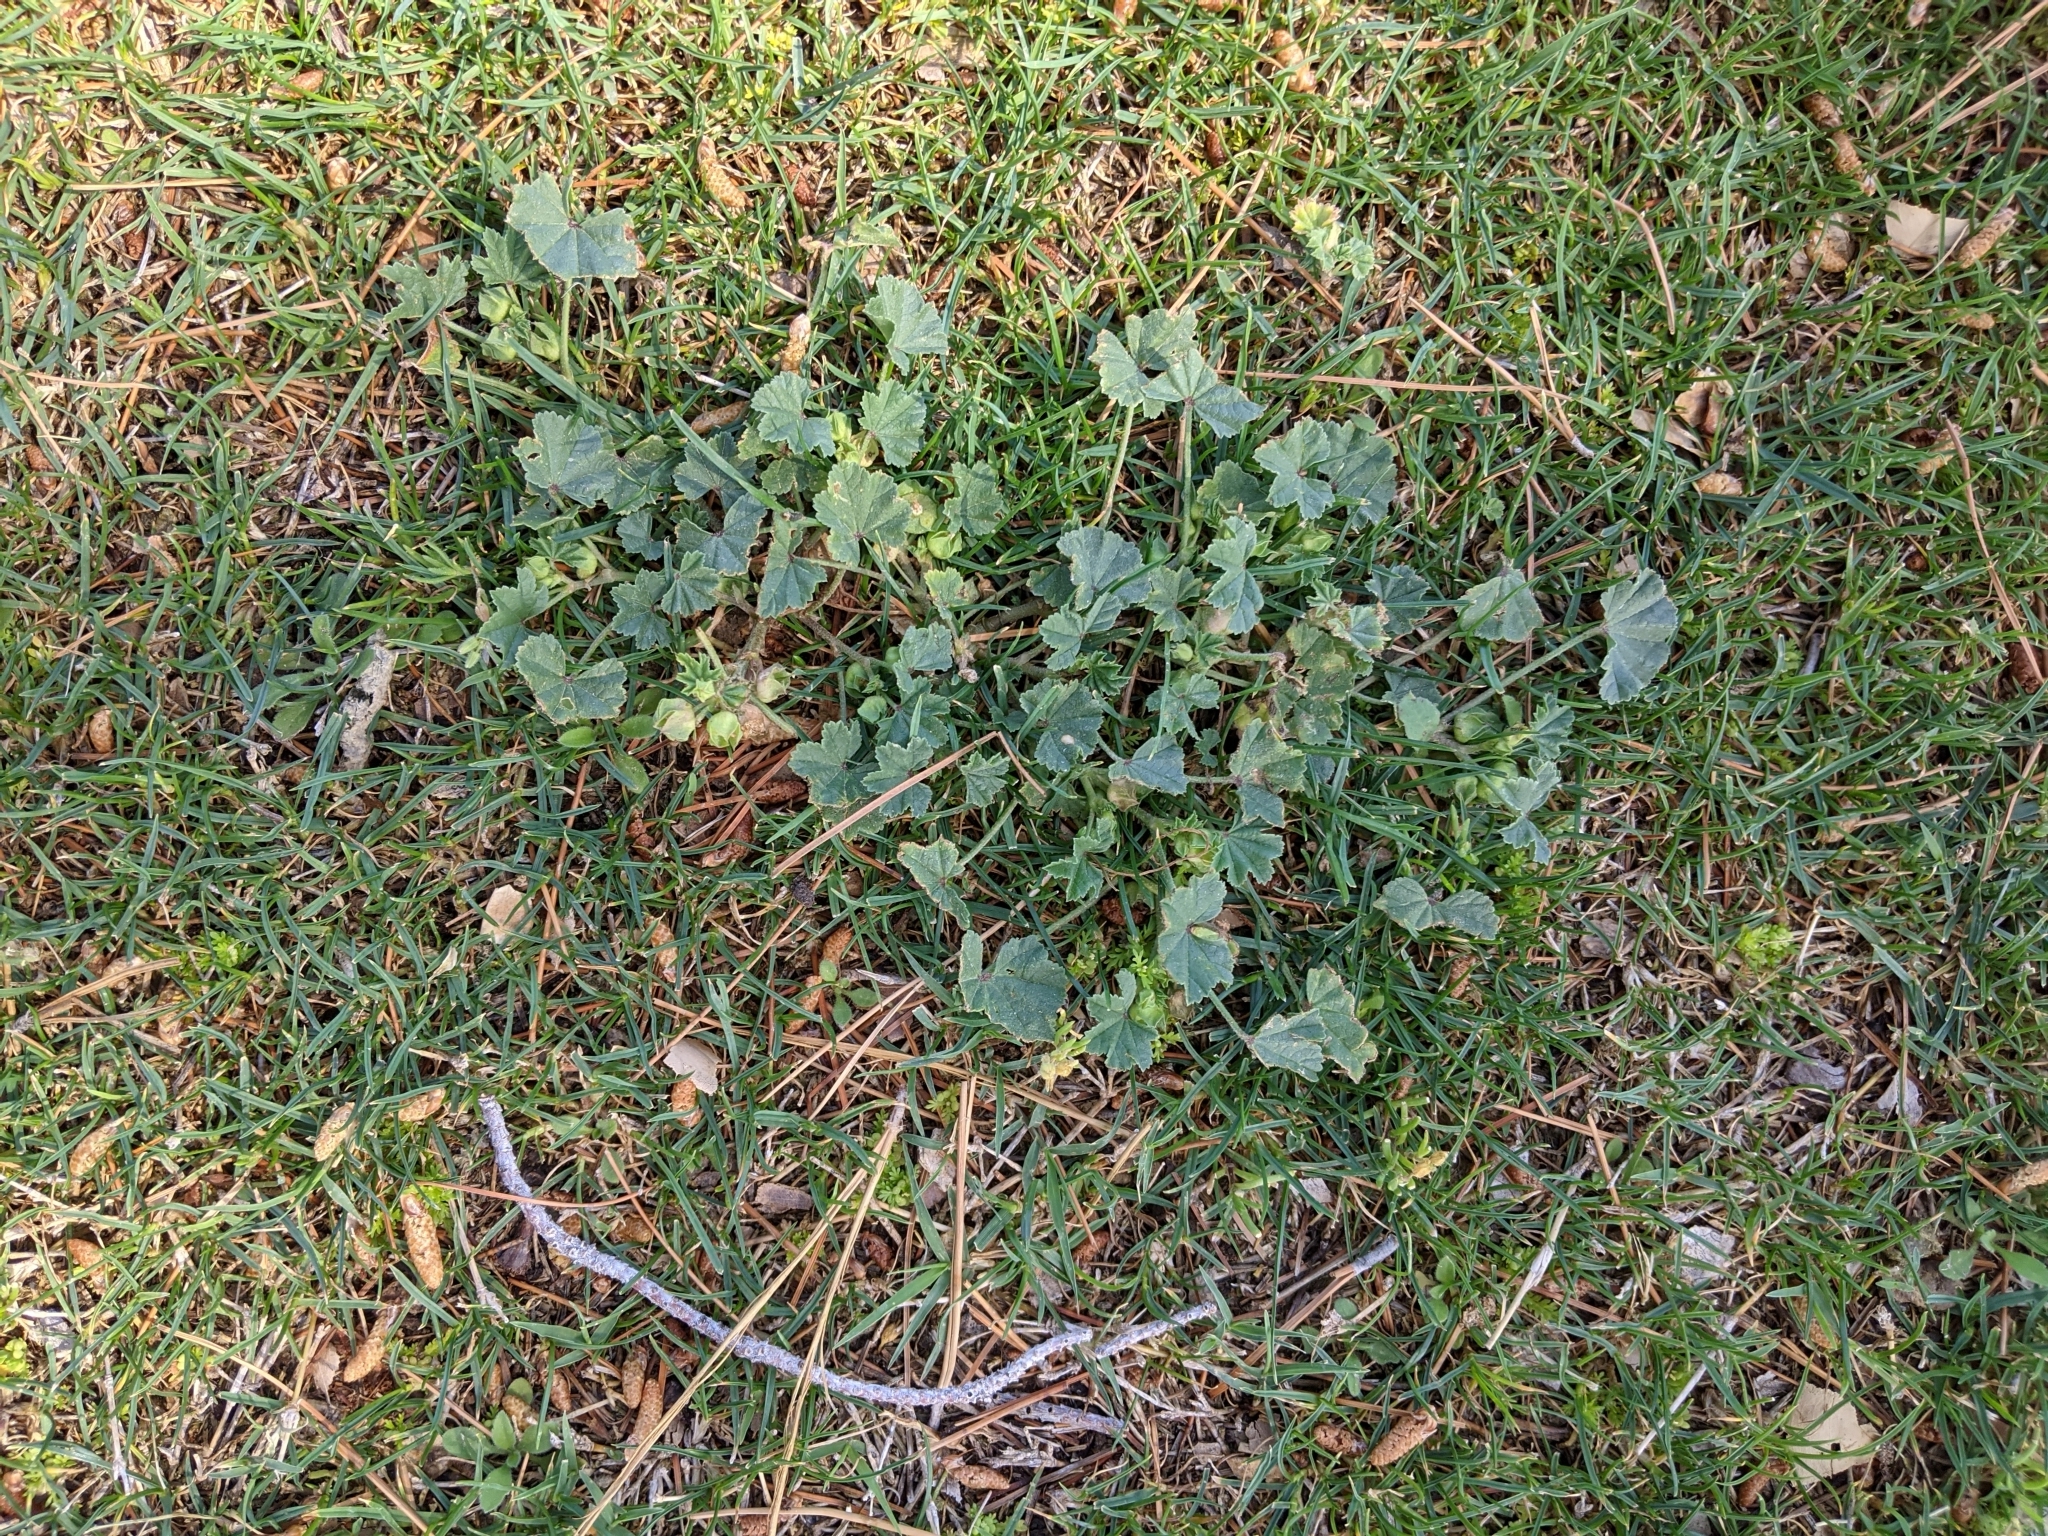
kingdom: Plantae
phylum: Tracheophyta
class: Magnoliopsida
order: Malvales
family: Malvaceae
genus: Malva
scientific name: Malva parviflora
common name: Least mallow
